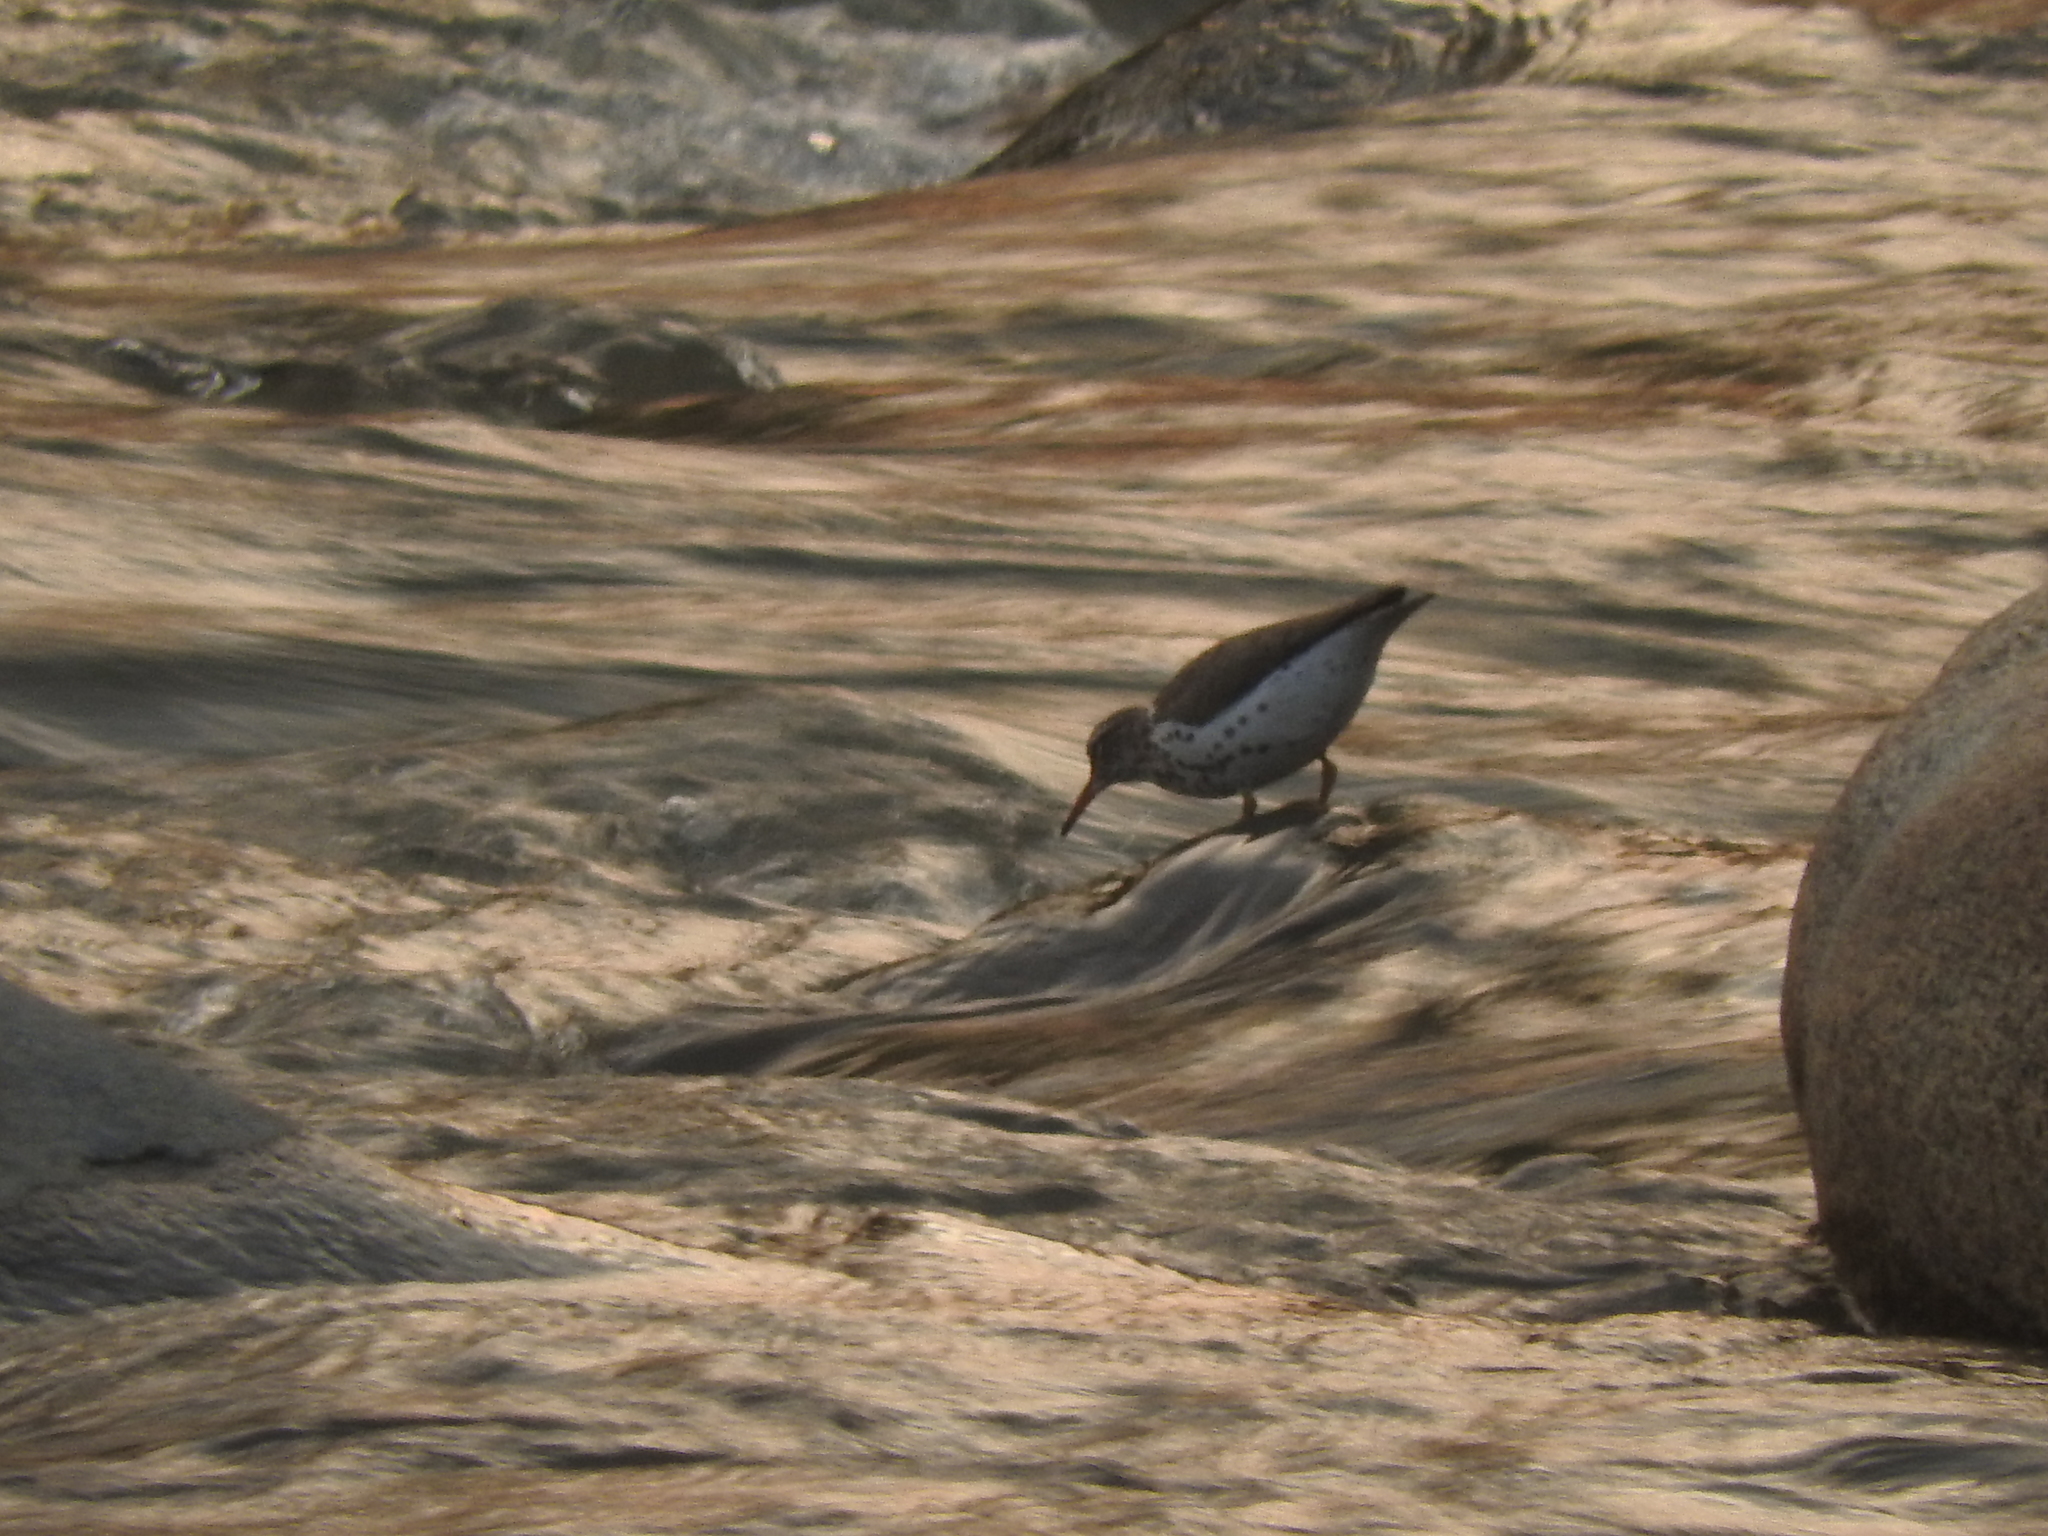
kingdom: Animalia
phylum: Chordata
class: Aves
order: Charadriiformes
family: Scolopacidae
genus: Actitis
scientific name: Actitis macularius
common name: Spotted sandpiper
